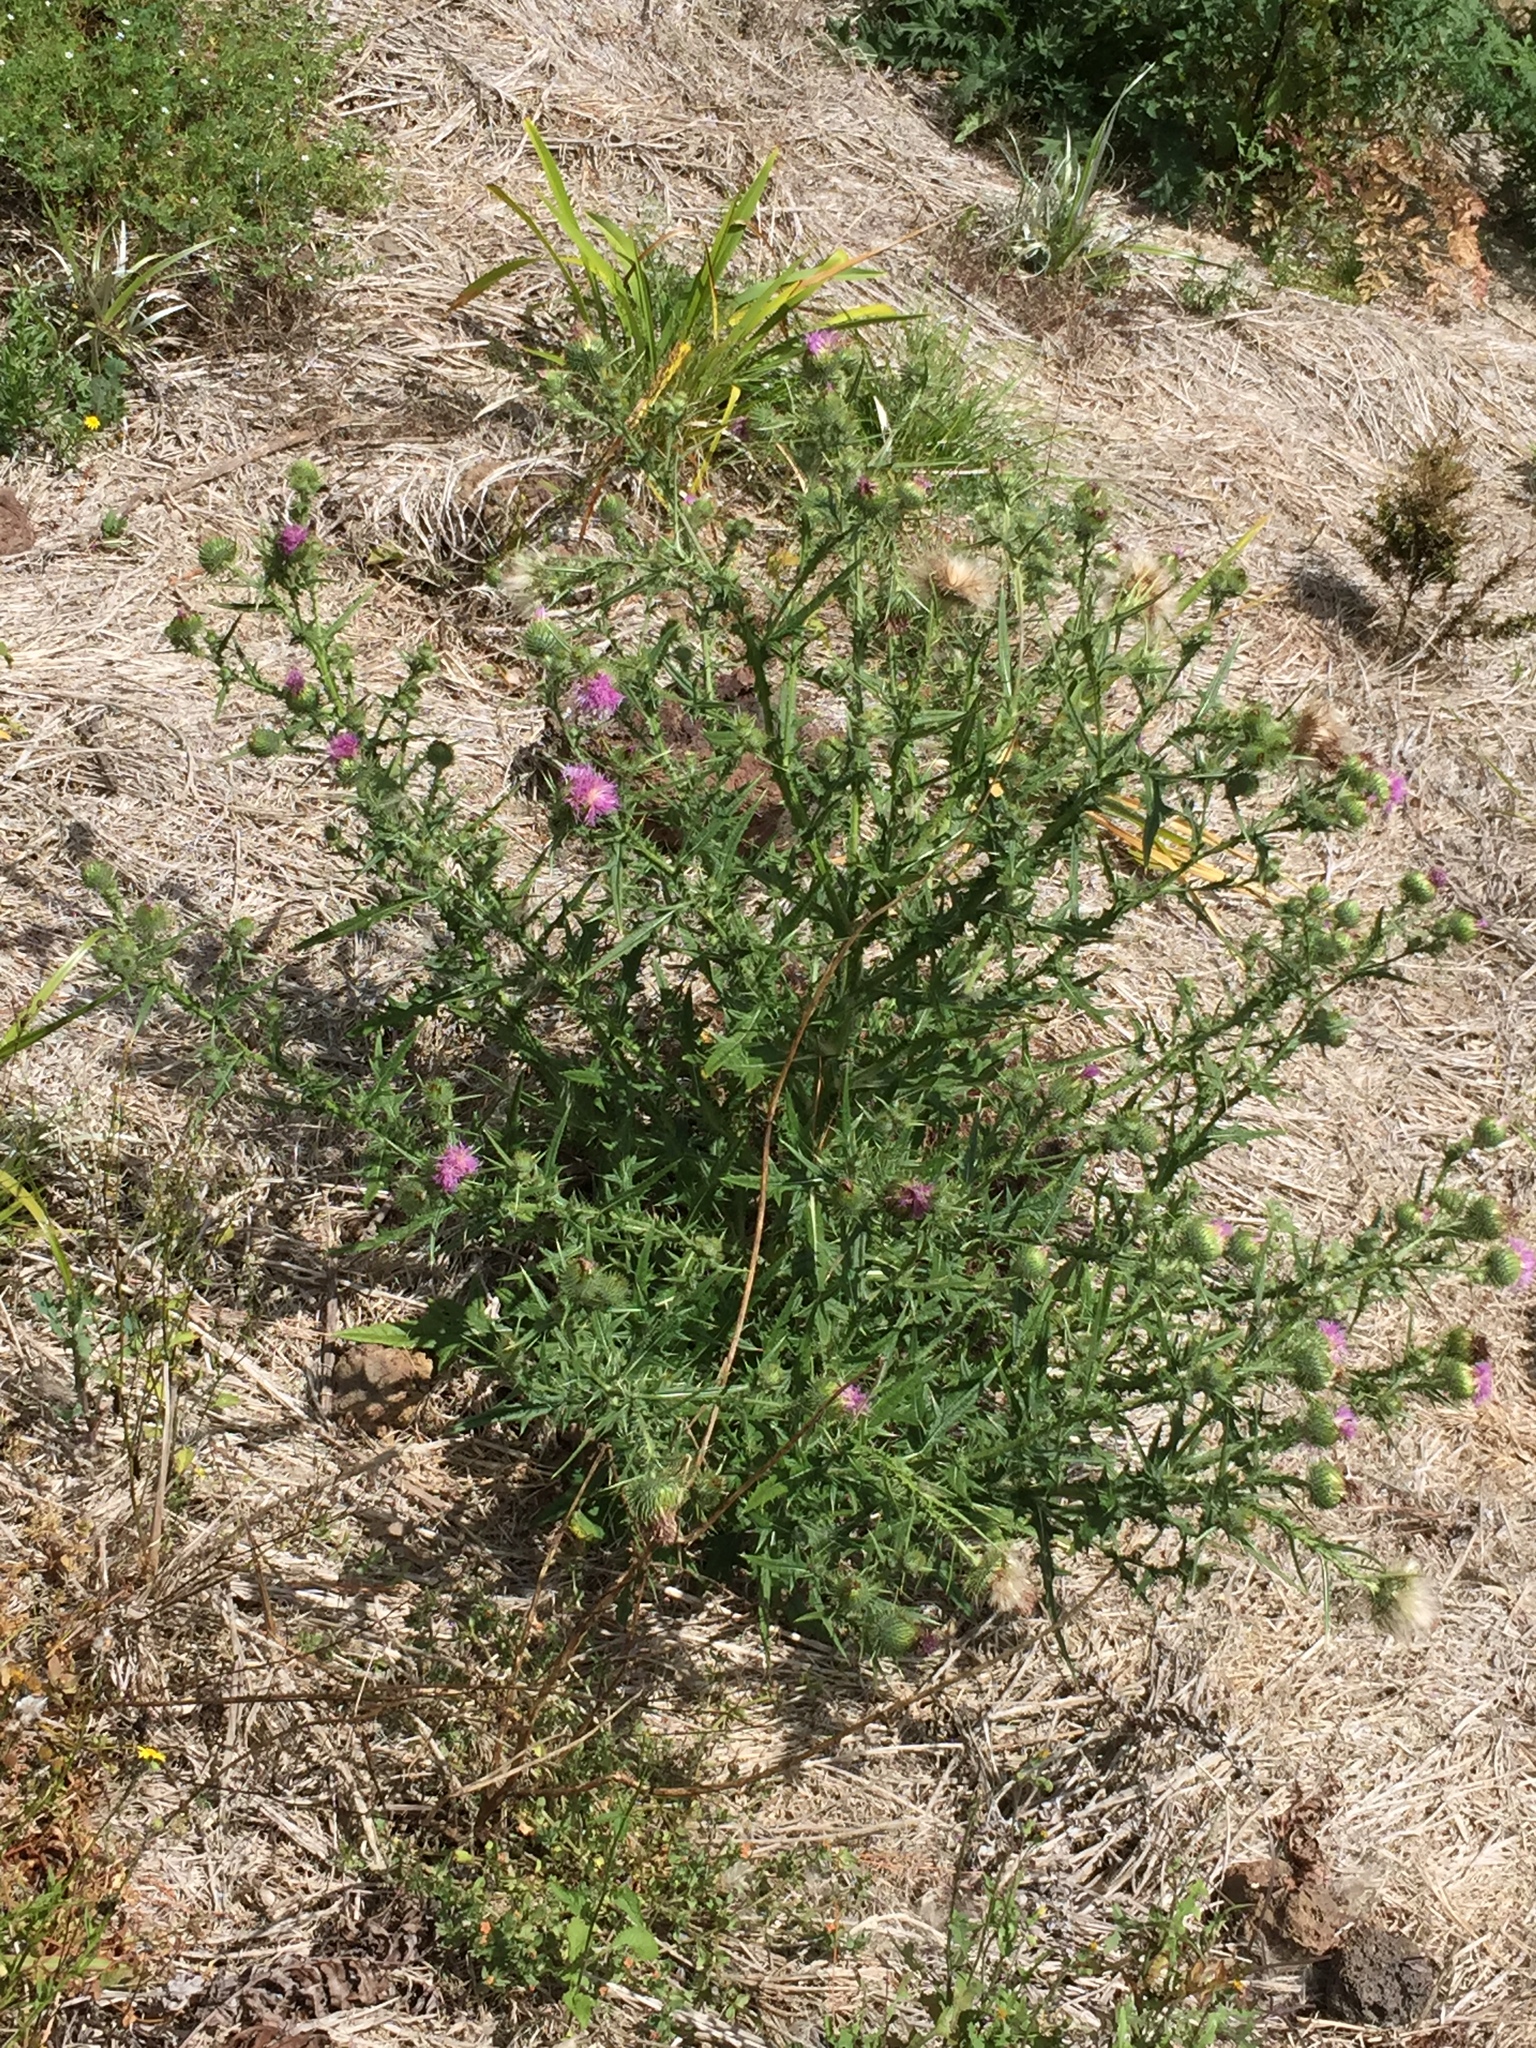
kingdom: Plantae
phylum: Tracheophyta
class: Magnoliopsida
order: Asterales
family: Asteraceae
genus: Cirsium
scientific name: Cirsium vulgare
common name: Bull thistle
